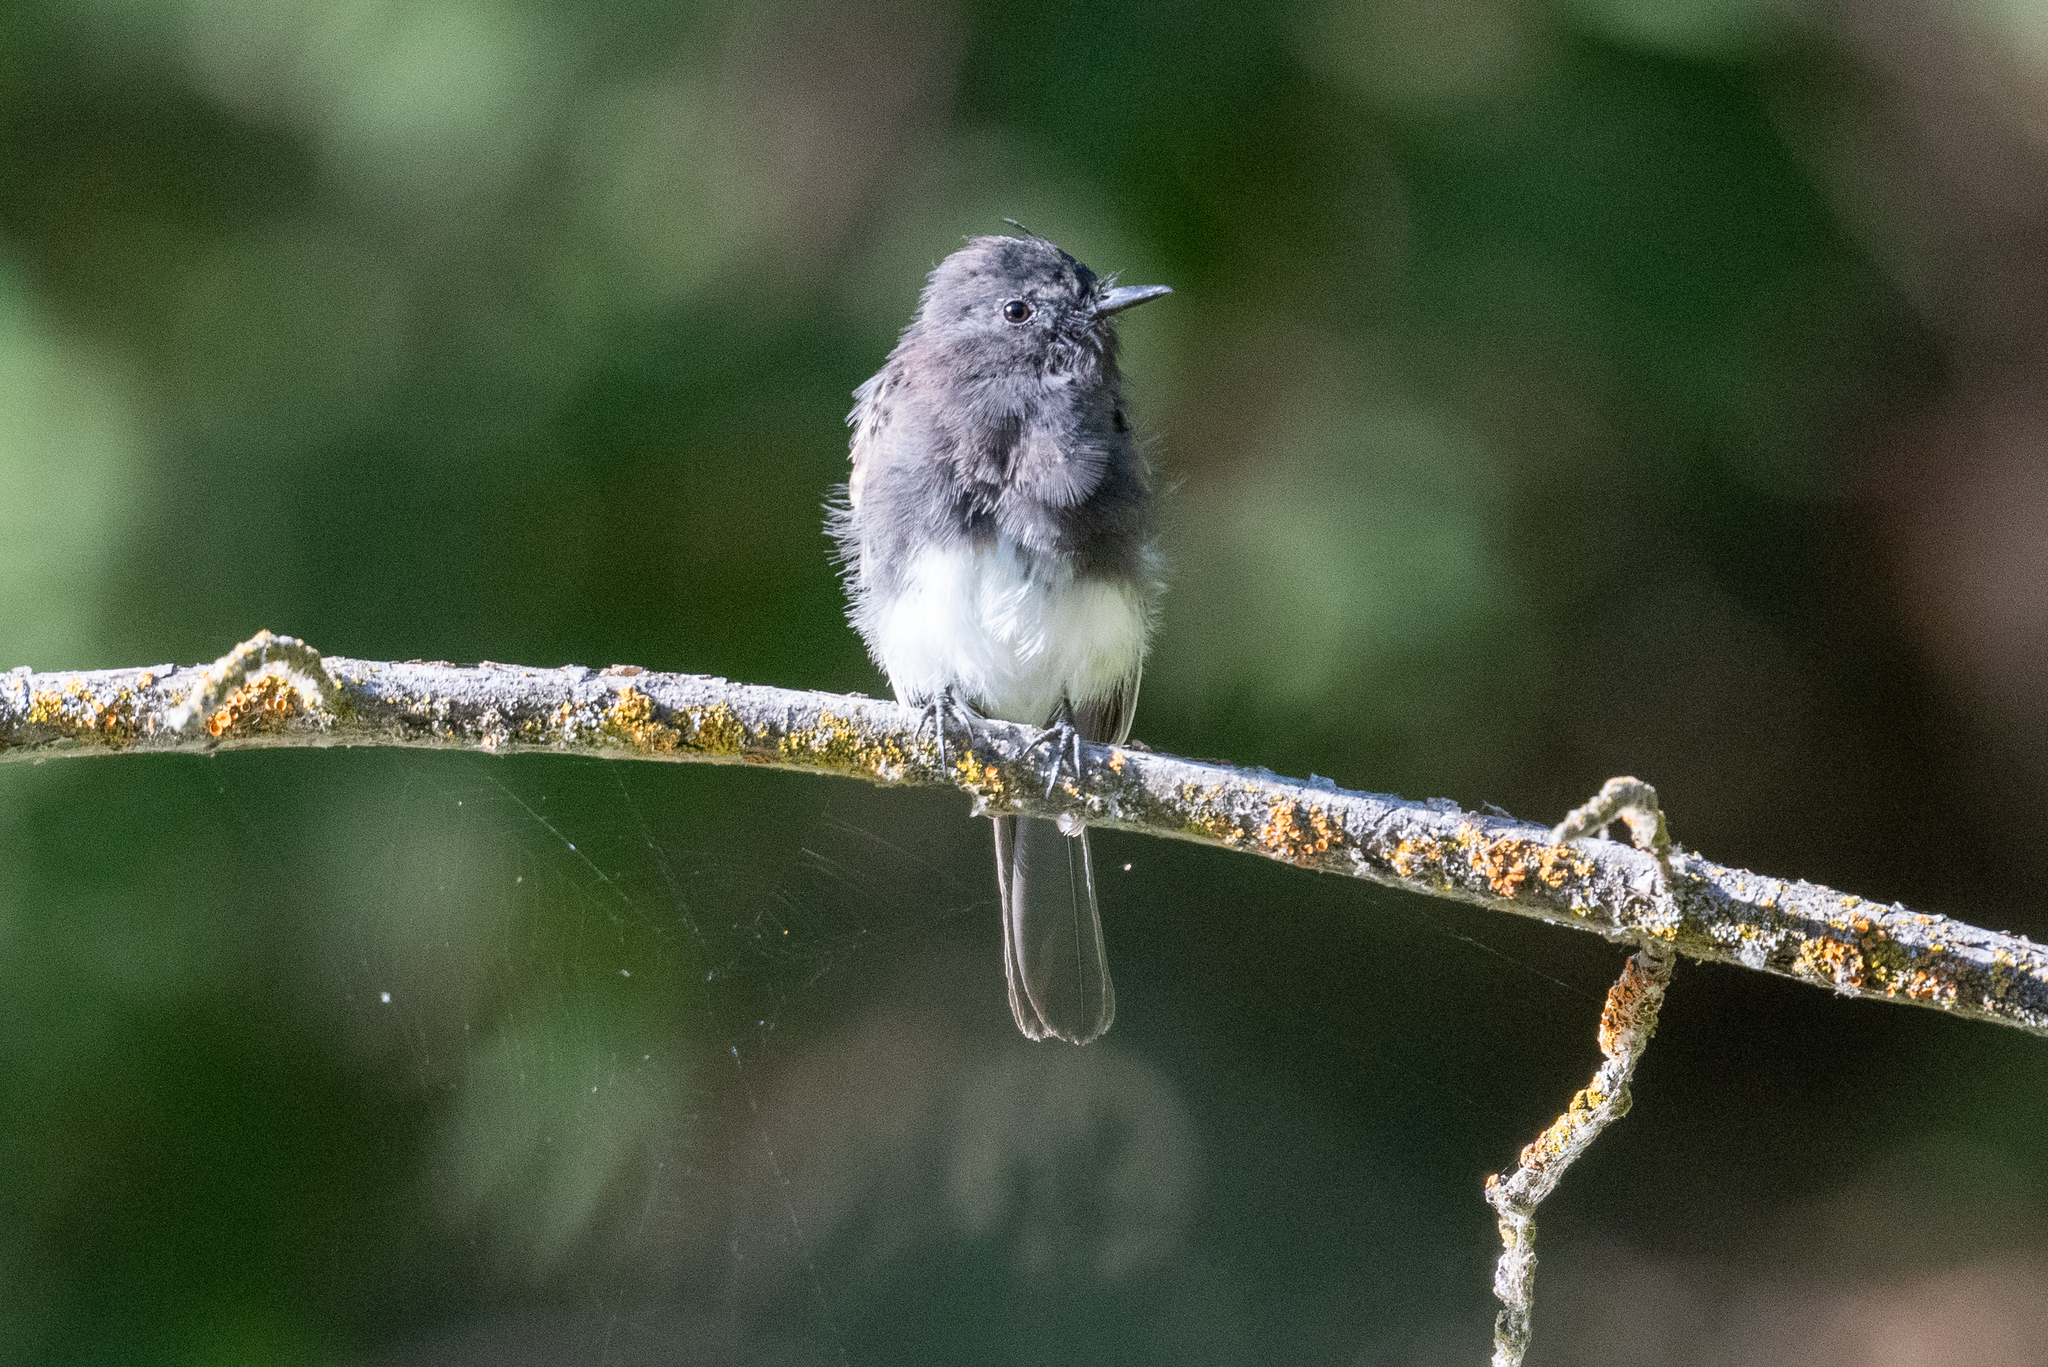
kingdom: Animalia
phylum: Chordata
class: Aves
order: Passeriformes
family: Tyrannidae
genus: Sayornis
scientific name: Sayornis nigricans
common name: Black phoebe
